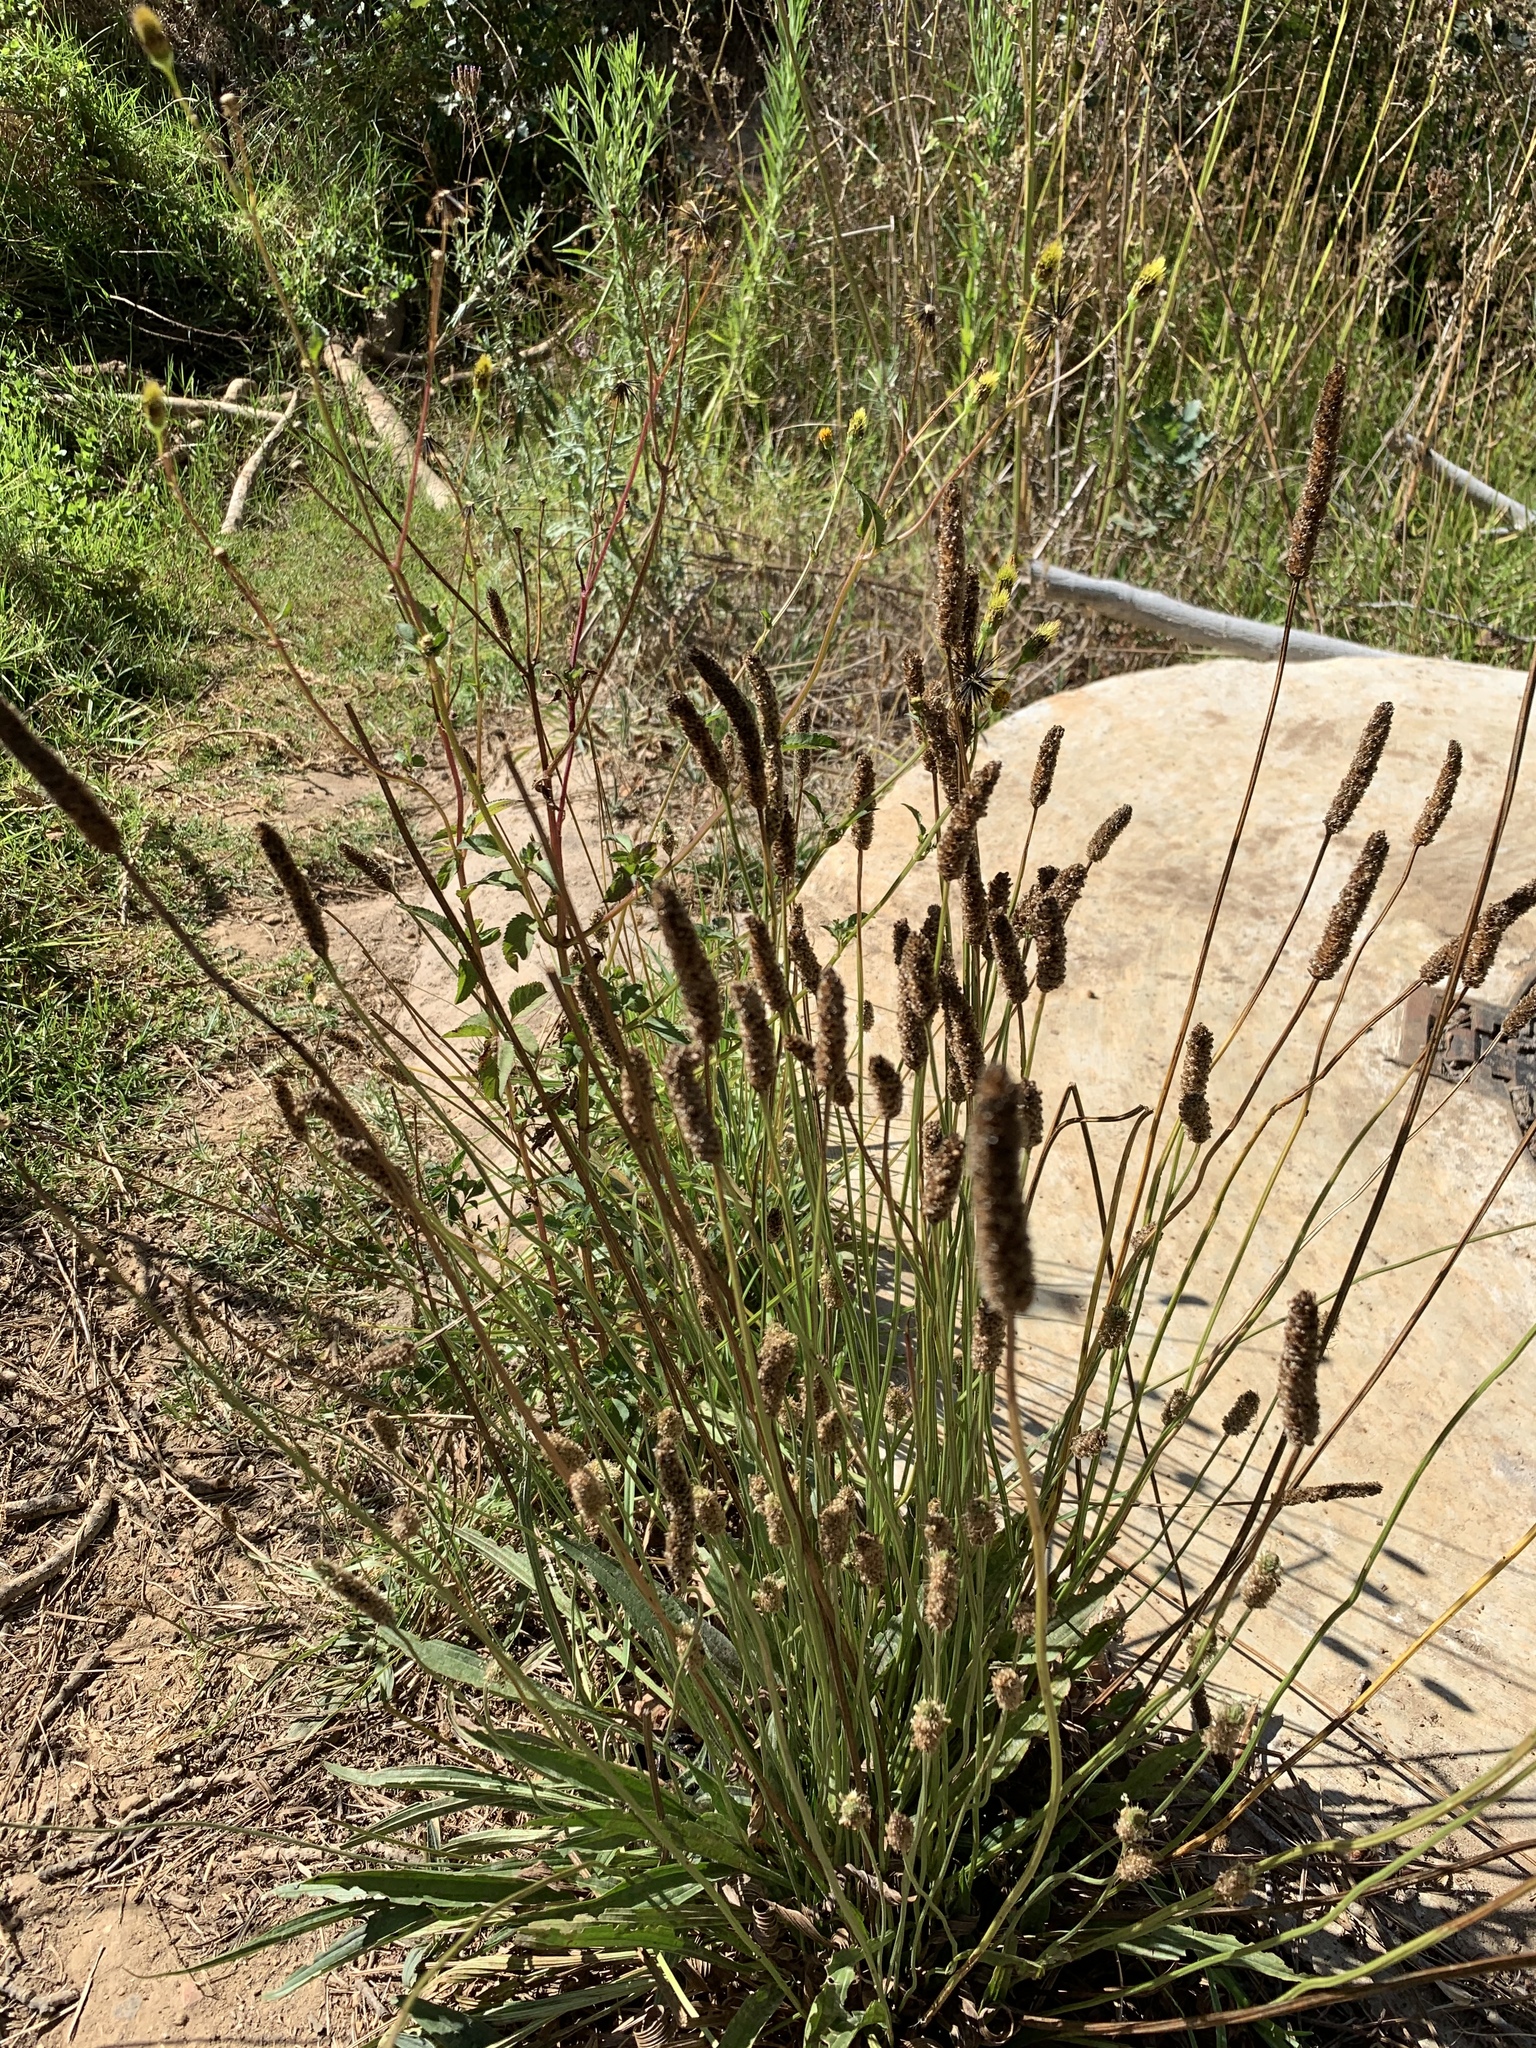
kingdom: Plantae
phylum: Tracheophyta
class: Magnoliopsida
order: Lamiales
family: Plantaginaceae
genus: Plantago
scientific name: Plantago lanceolata
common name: Ribwort plantain
